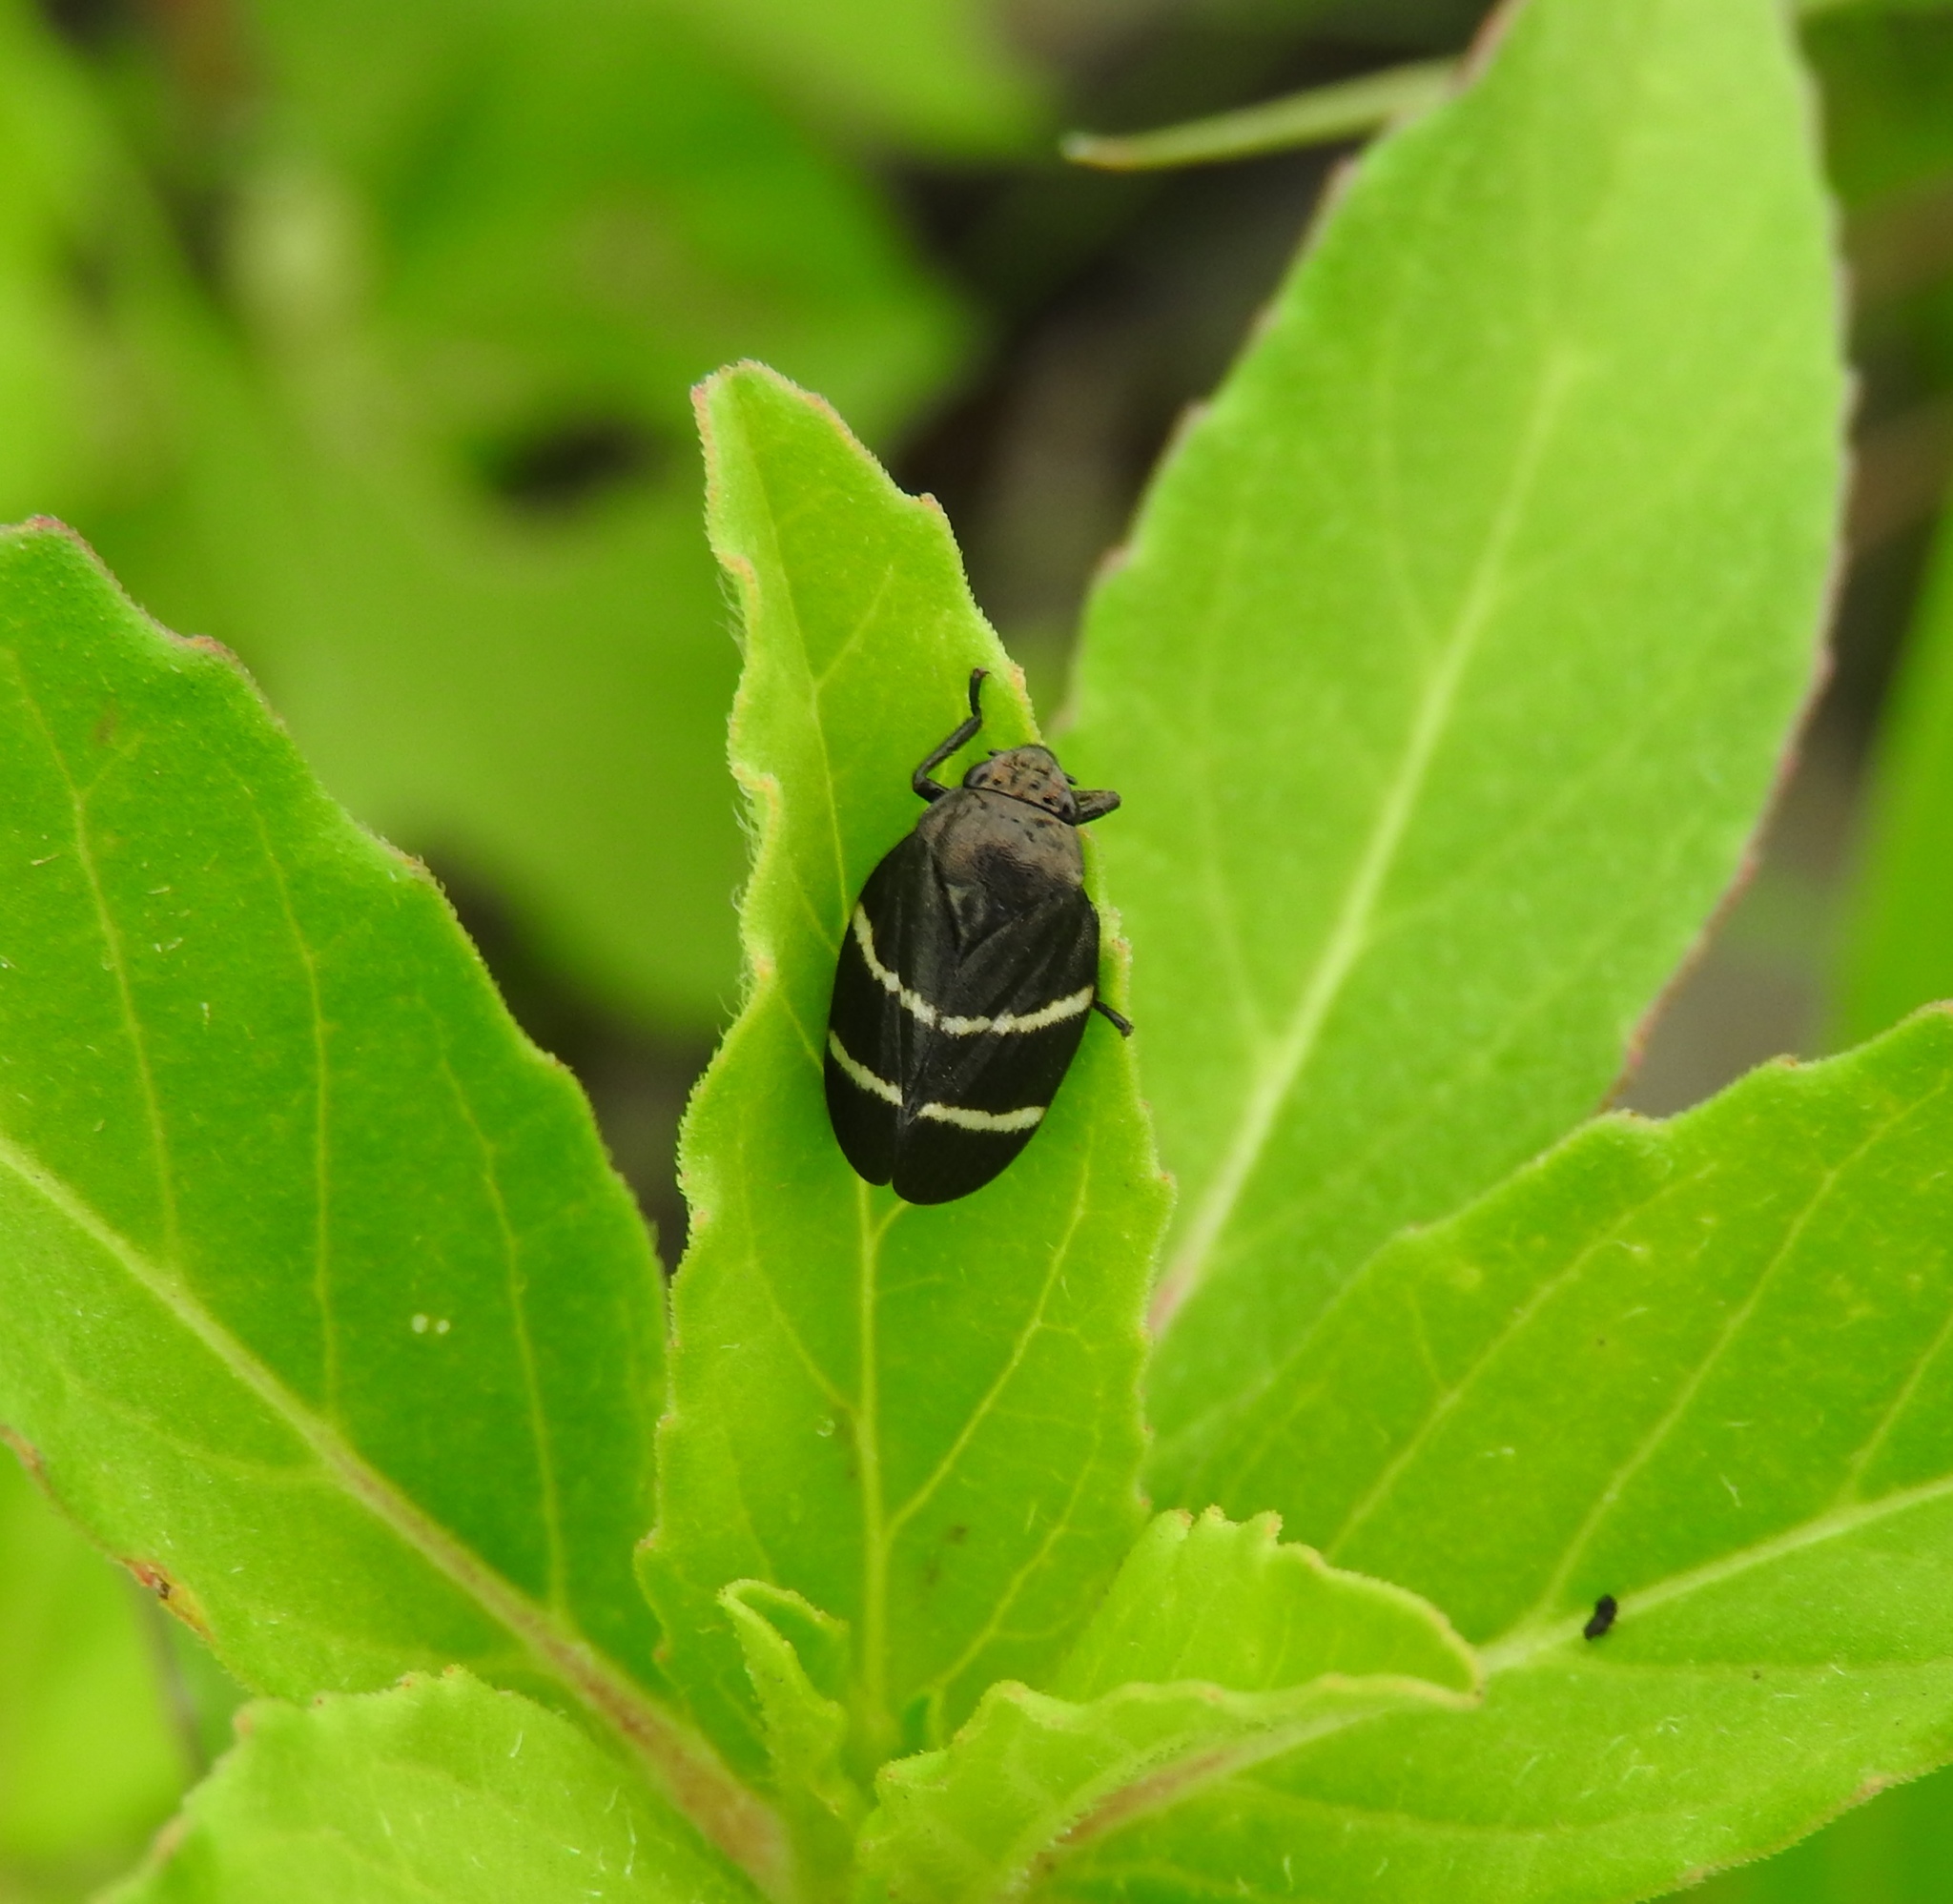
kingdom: Animalia
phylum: Arthropoda
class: Insecta
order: Hemiptera
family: Cercopidae
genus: Aeneolamia
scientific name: Aeneolamia albofasciata
